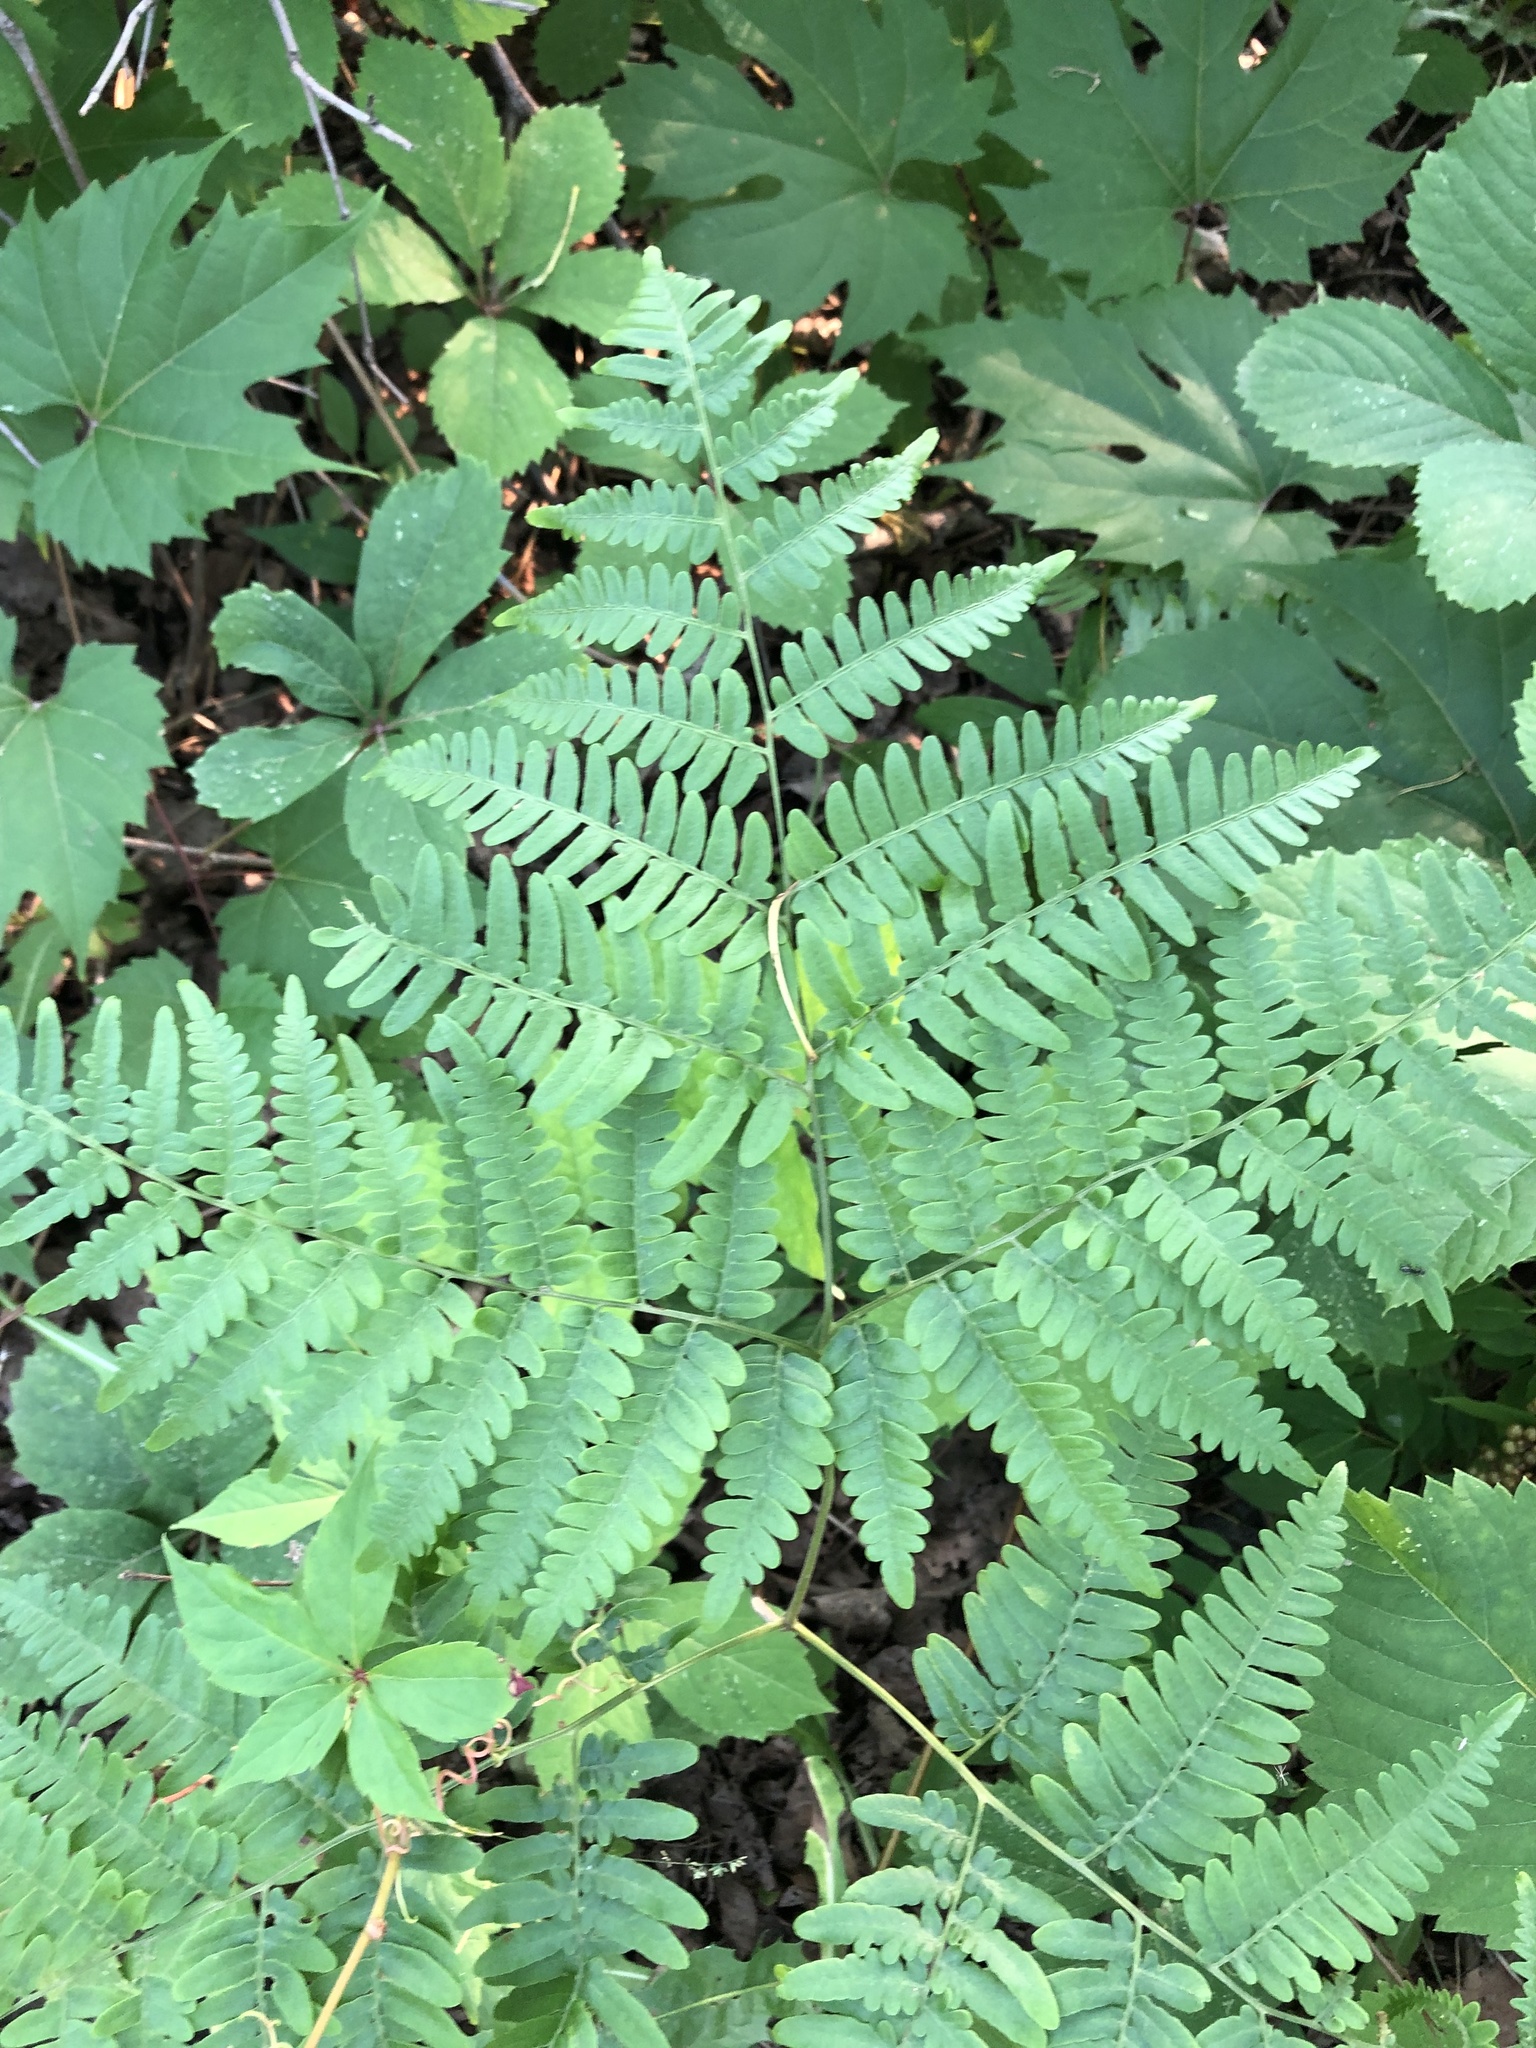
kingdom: Plantae
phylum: Tracheophyta
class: Polypodiopsida
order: Polypodiales
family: Dennstaedtiaceae
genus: Pteridium
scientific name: Pteridium aquilinum
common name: Bracken
